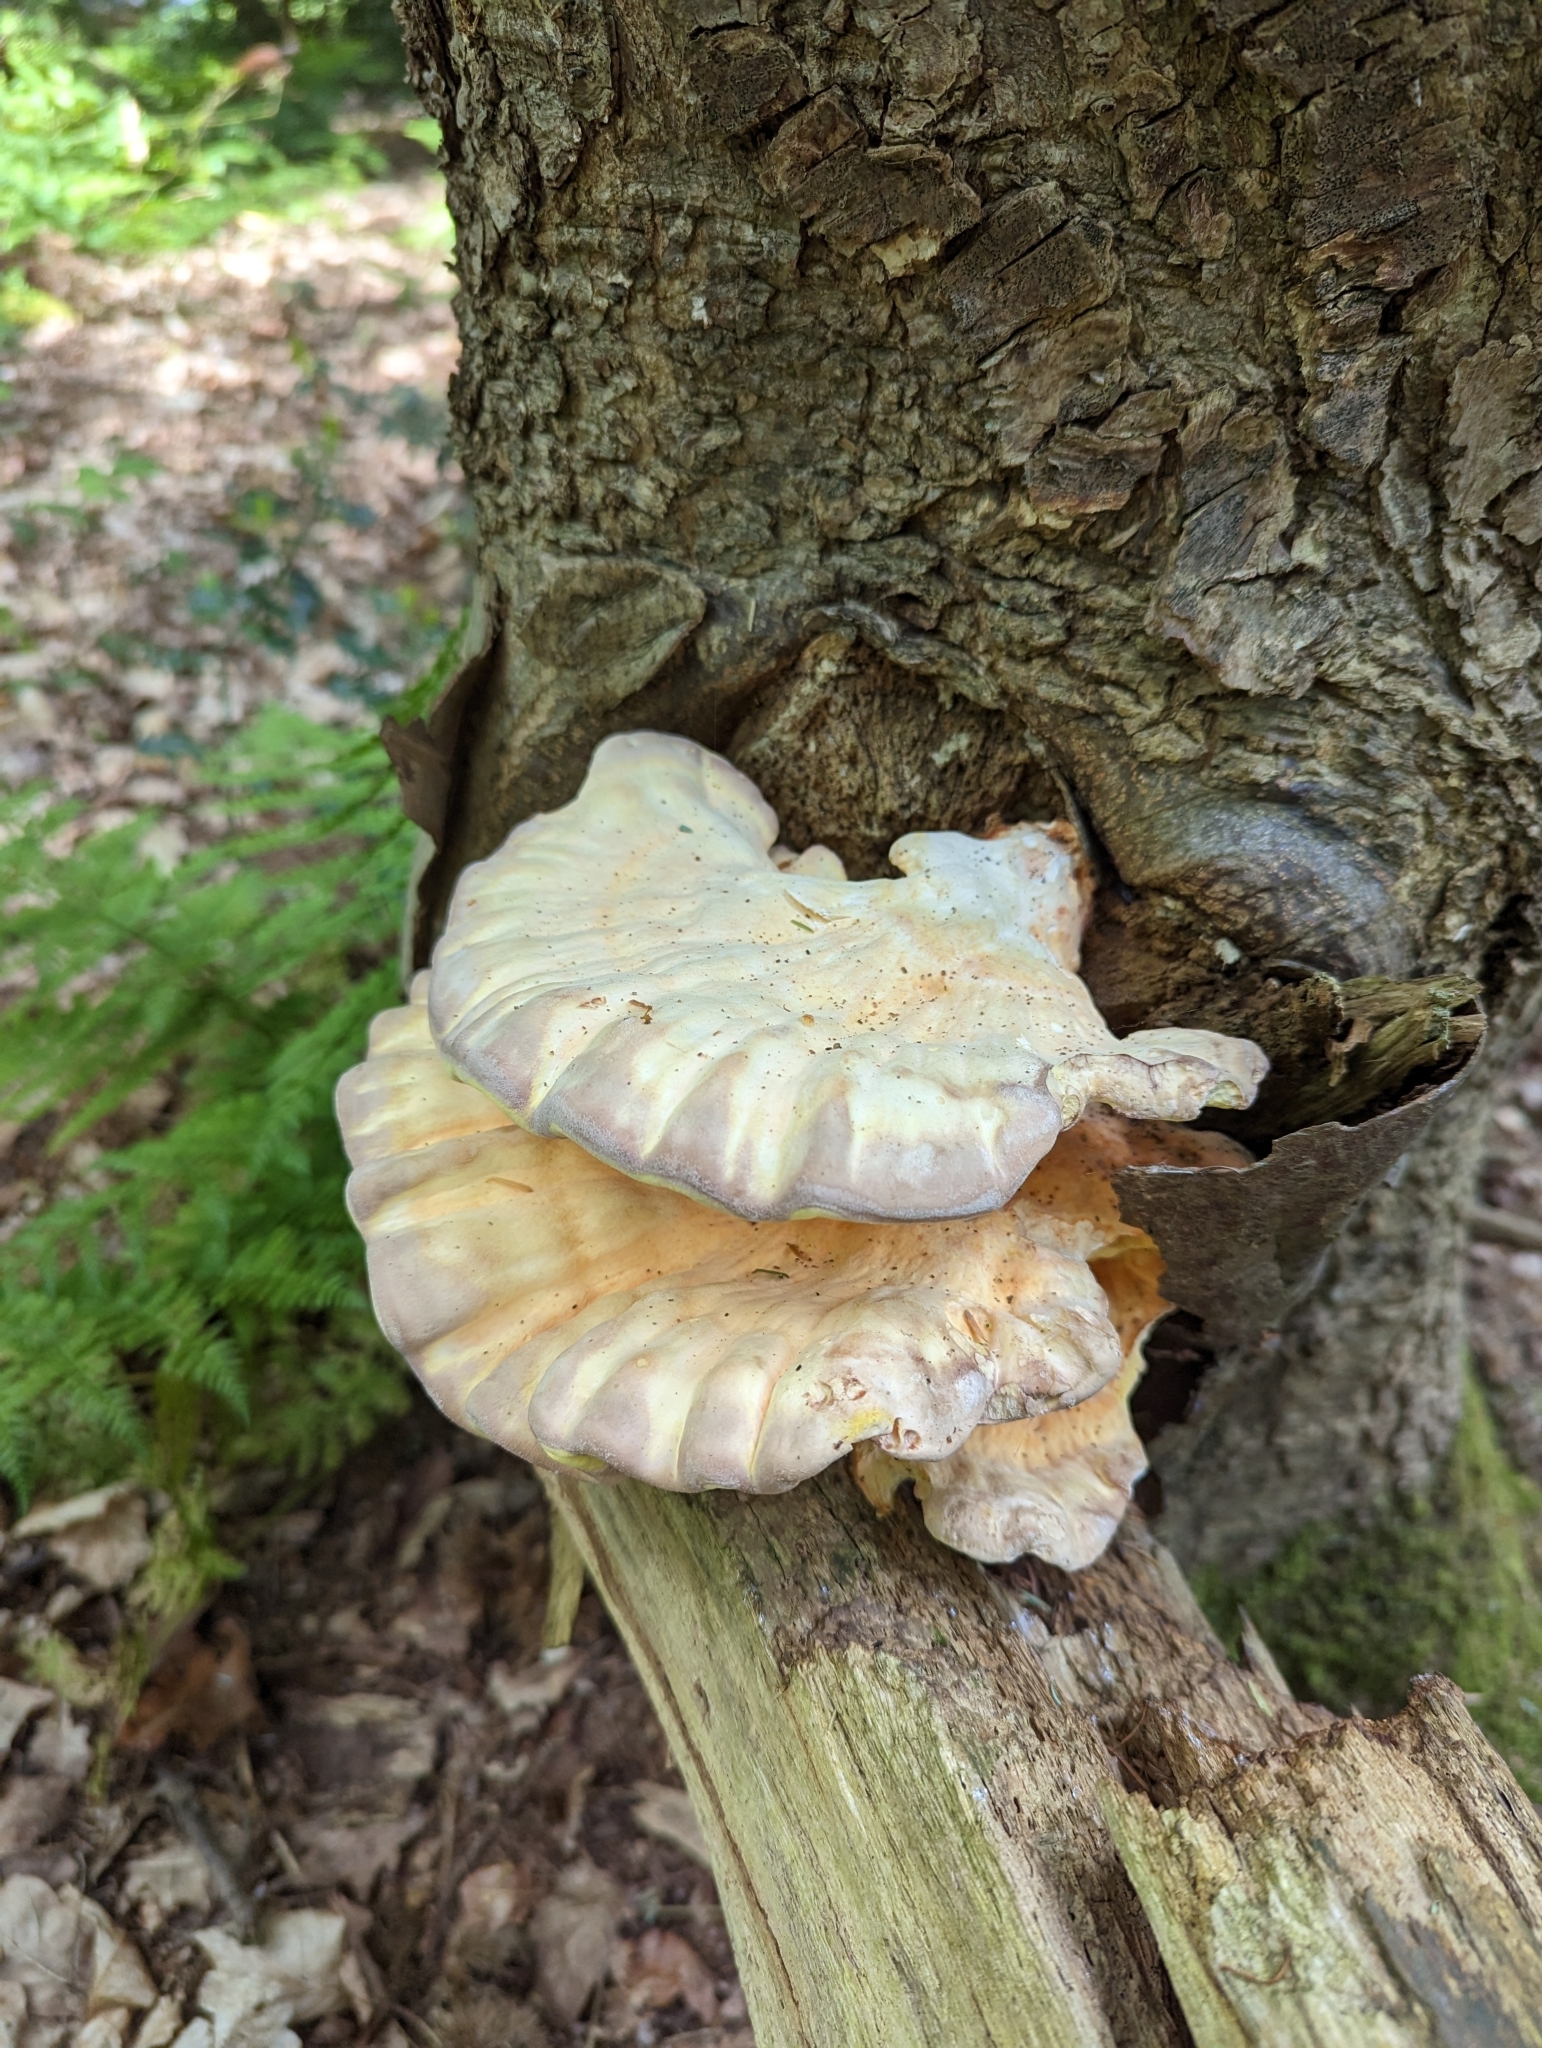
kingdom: Fungi
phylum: Basidiomycota
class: Agaricomycetes
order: Polyporales
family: Laetiporaceae
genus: Laetiporus
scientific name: Laetiporus sulphureus
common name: Chicken of the woods
